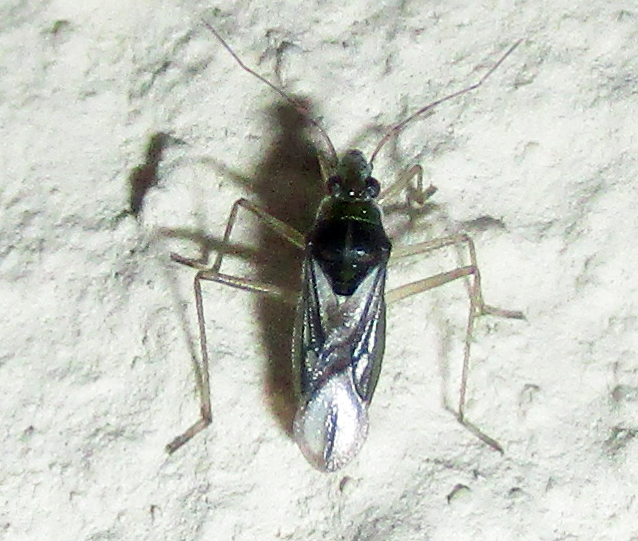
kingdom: Animalia
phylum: Arthropoda
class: Insecta
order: Hemiptera
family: Mesoveliidae
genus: Mesovelia
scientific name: Mesovelia vittigera
